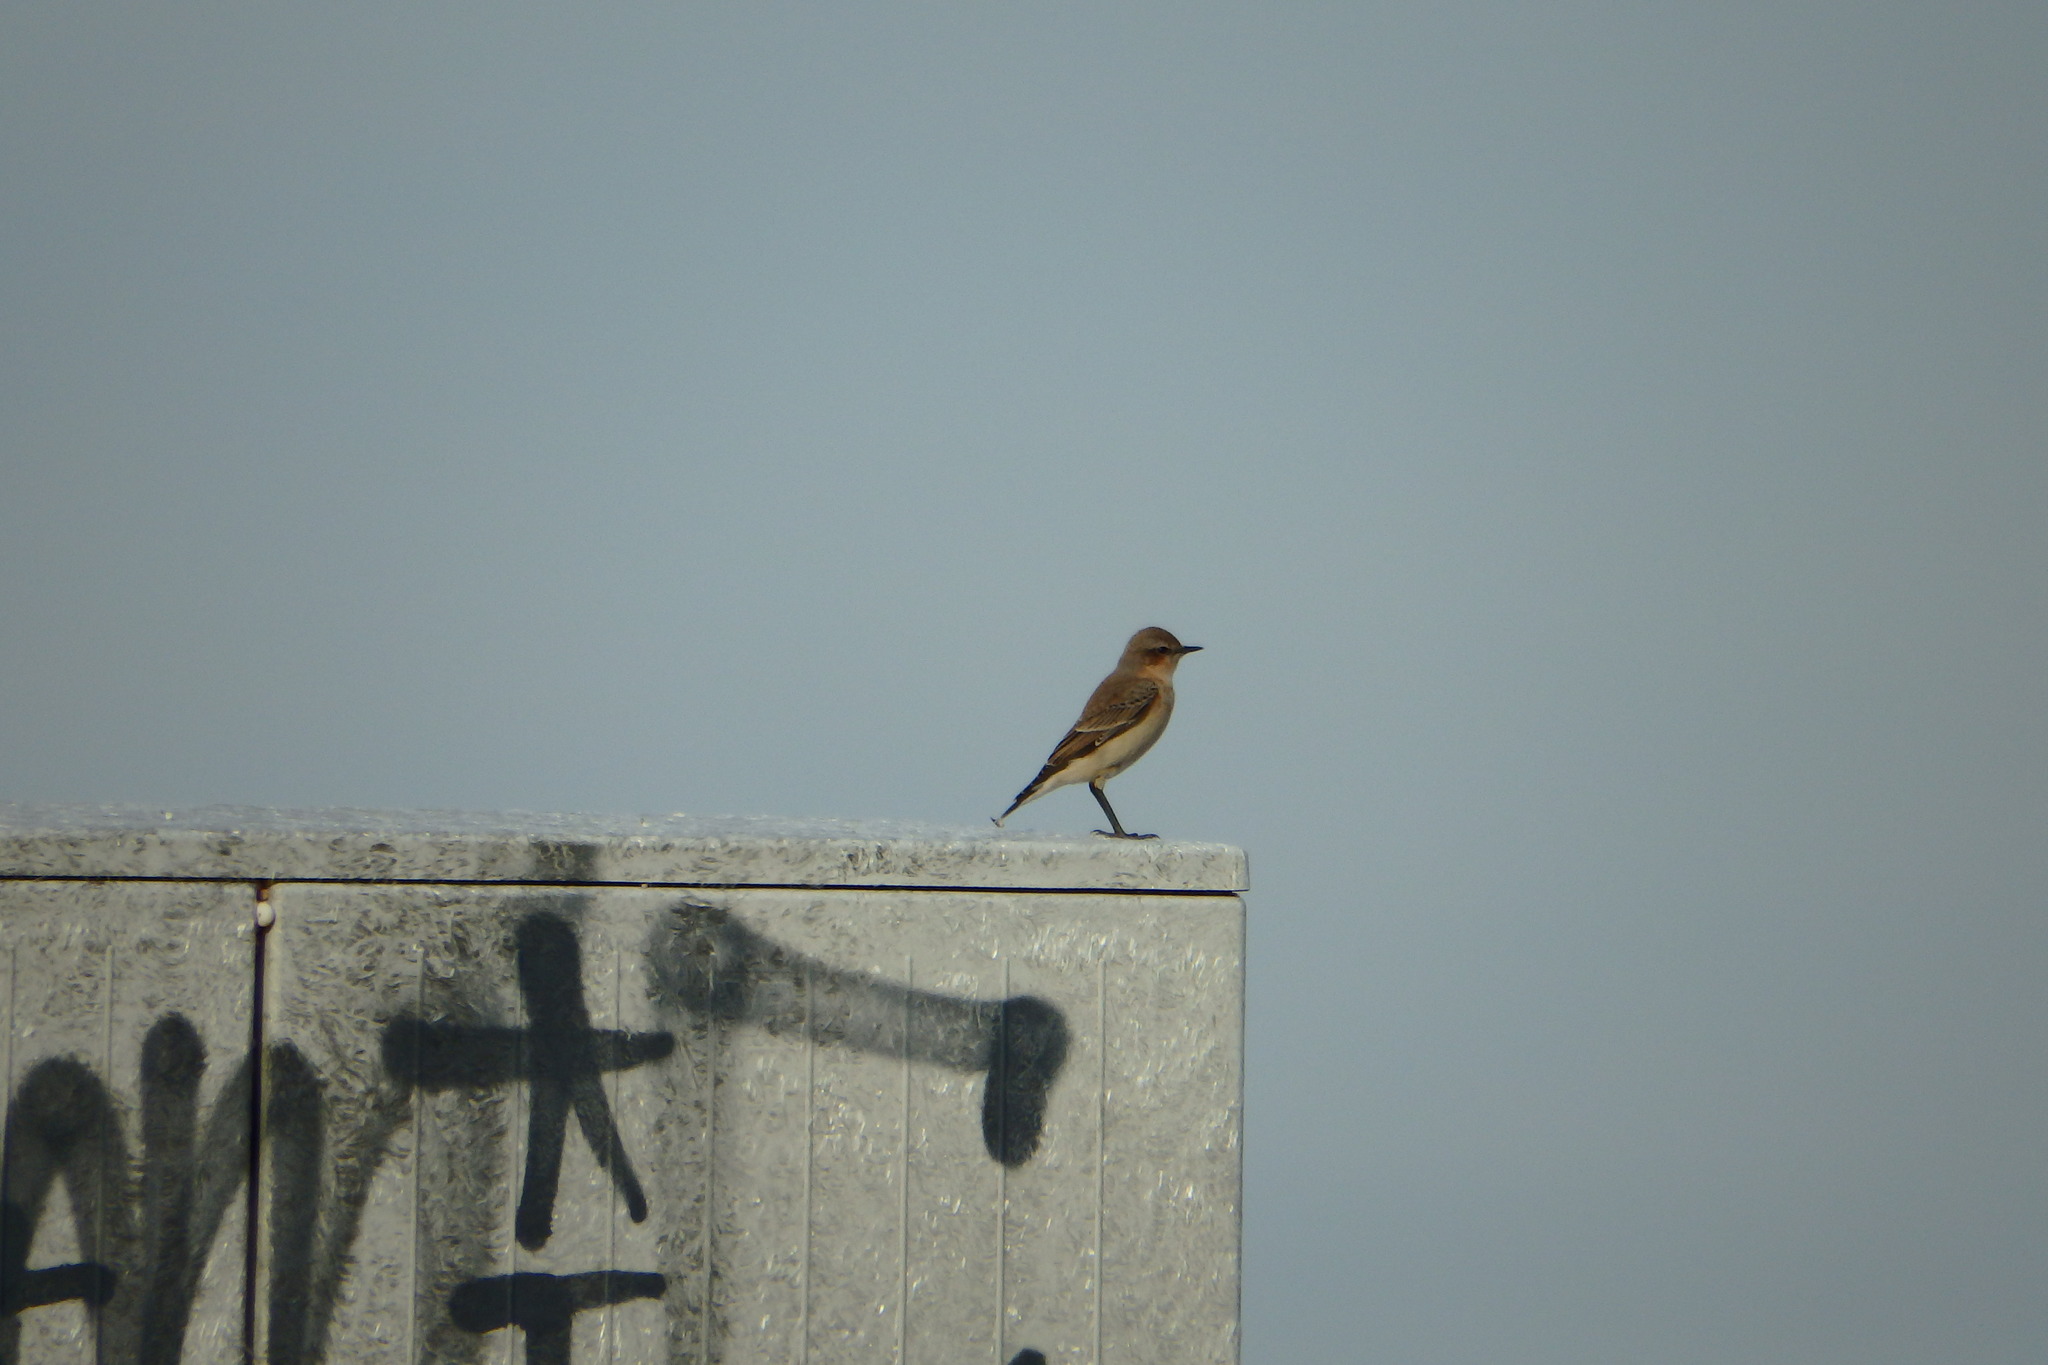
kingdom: Animalia
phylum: Chordata
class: Aves
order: Passeriformes
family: Muscicapidae
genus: Oenanthe
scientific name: Oenanthe oenanthe
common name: Northern wheatear
